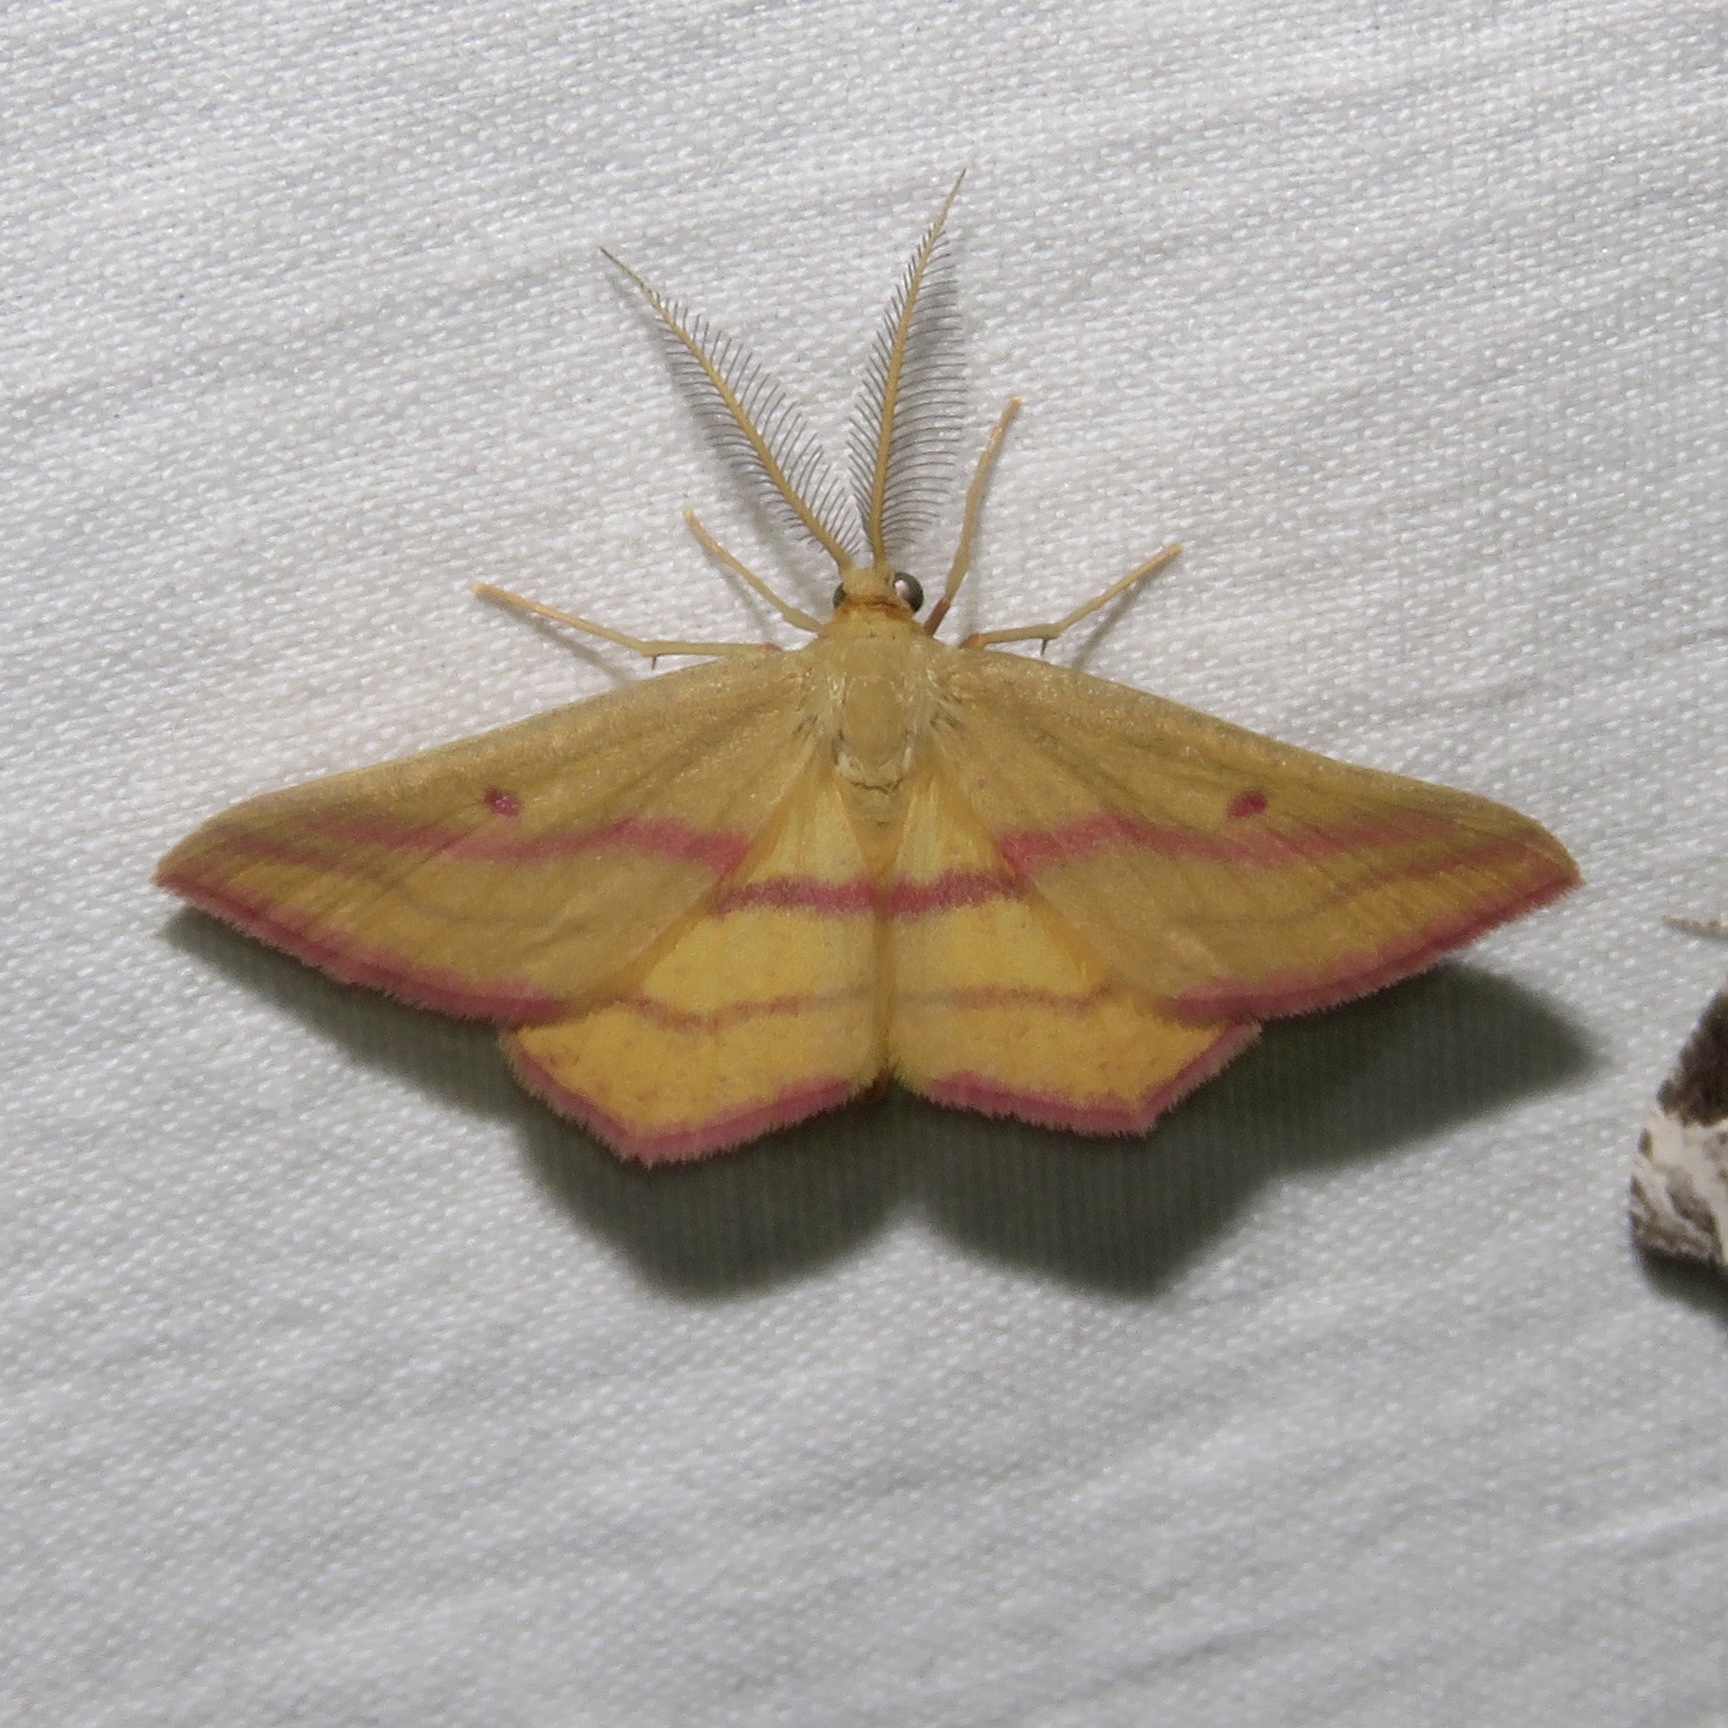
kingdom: Animalia
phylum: Arthropoda
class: Insecta
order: Lepidoptera
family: Geometridae
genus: Haematopis
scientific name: Haematopis grataria
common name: Chickweed geometer
